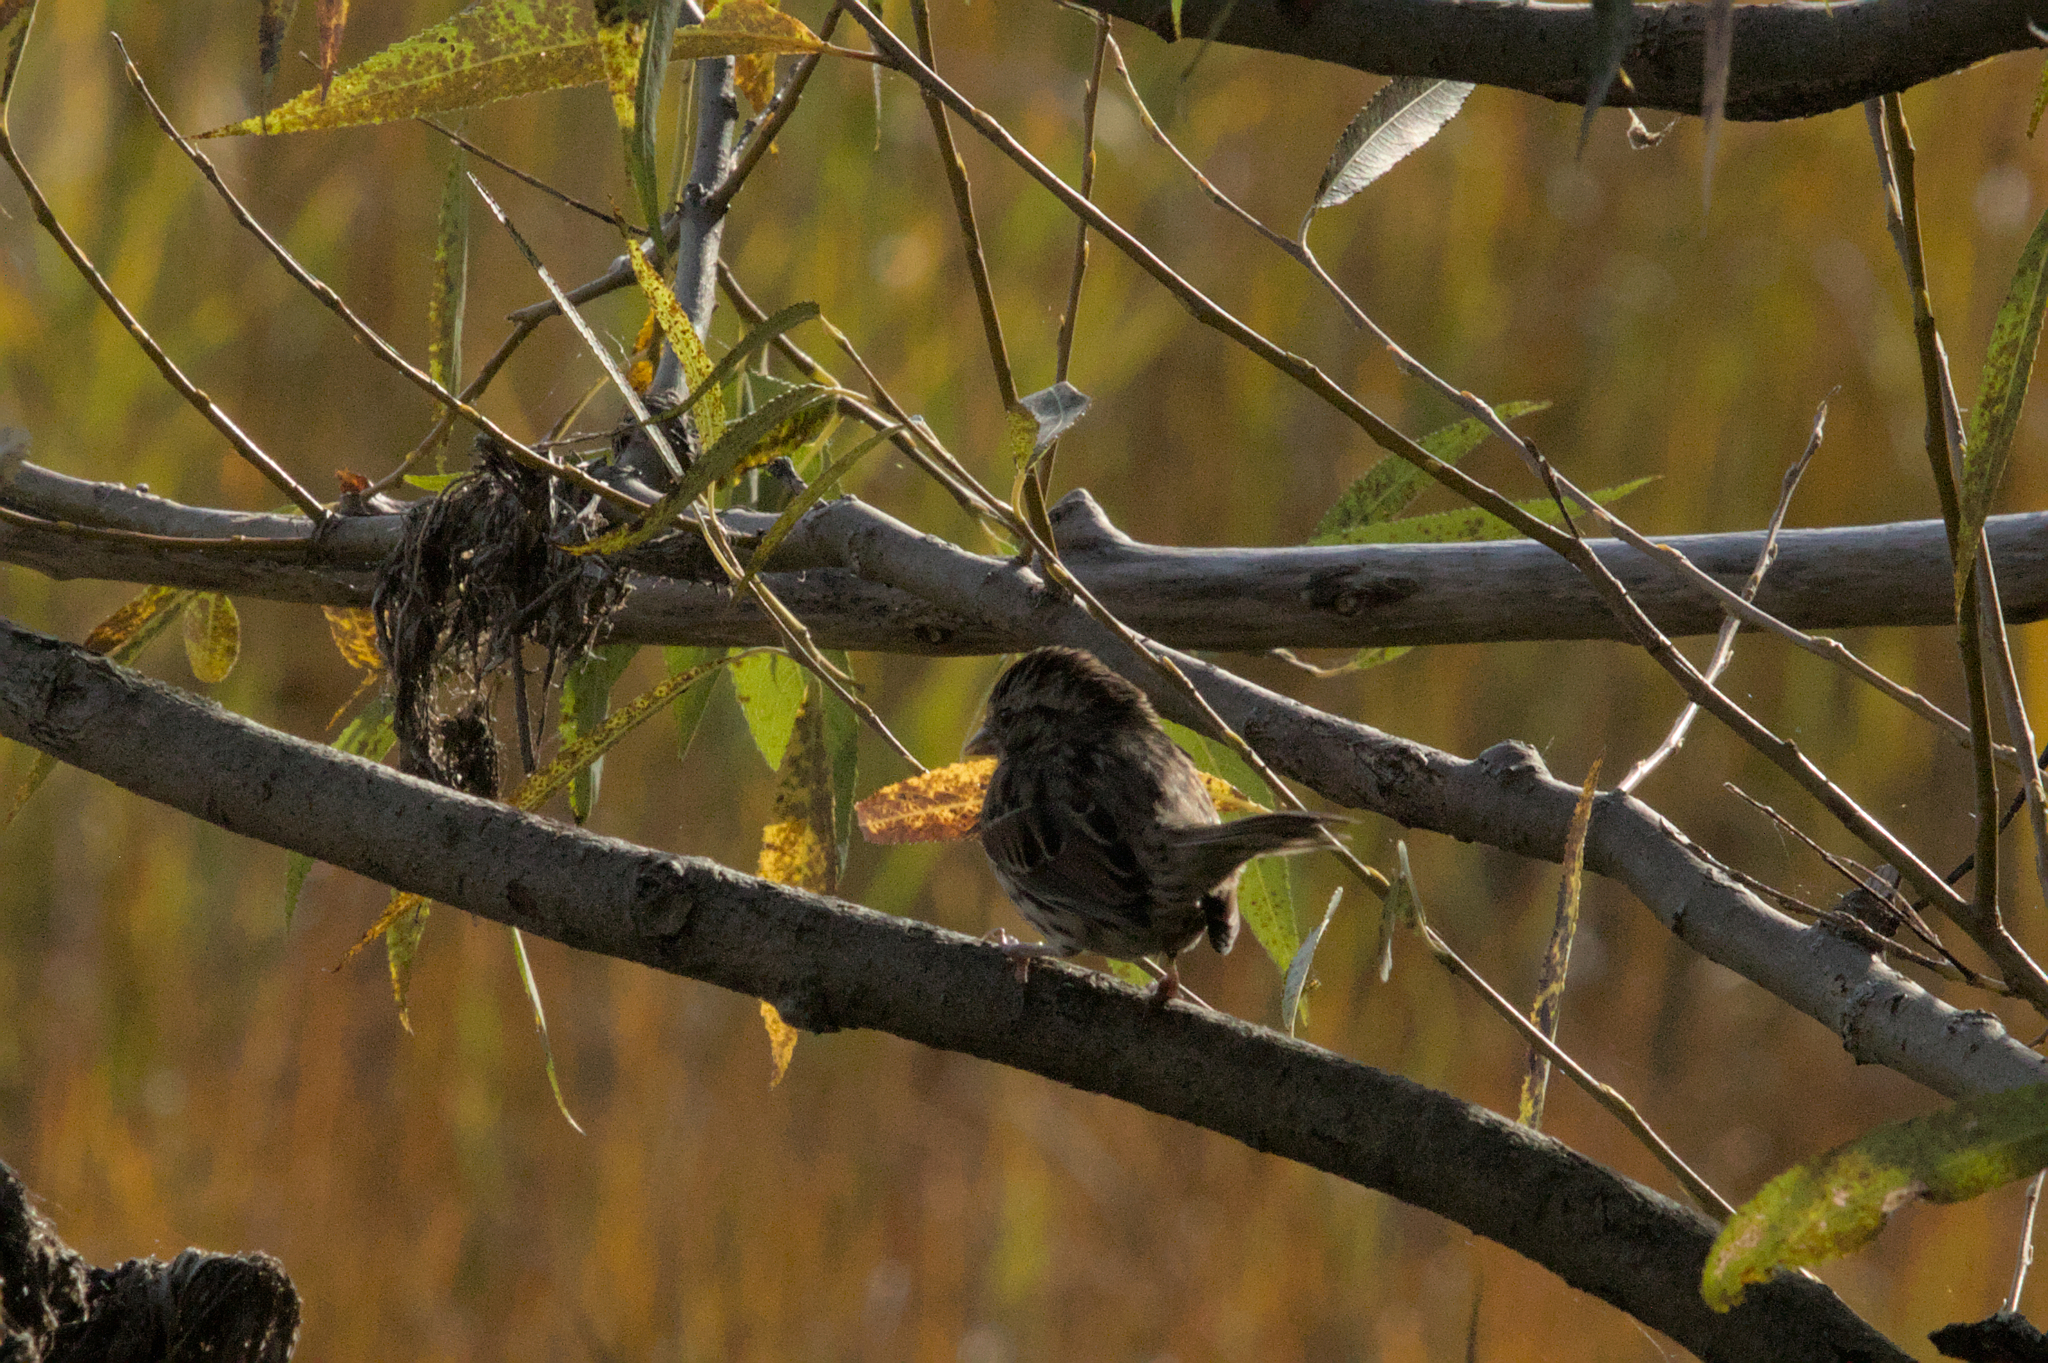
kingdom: Animalia
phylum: Chordata
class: Aves
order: Passeriformes
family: Passerellidae
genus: Melospiza
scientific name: Melospiza melodia
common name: Song sparrow
